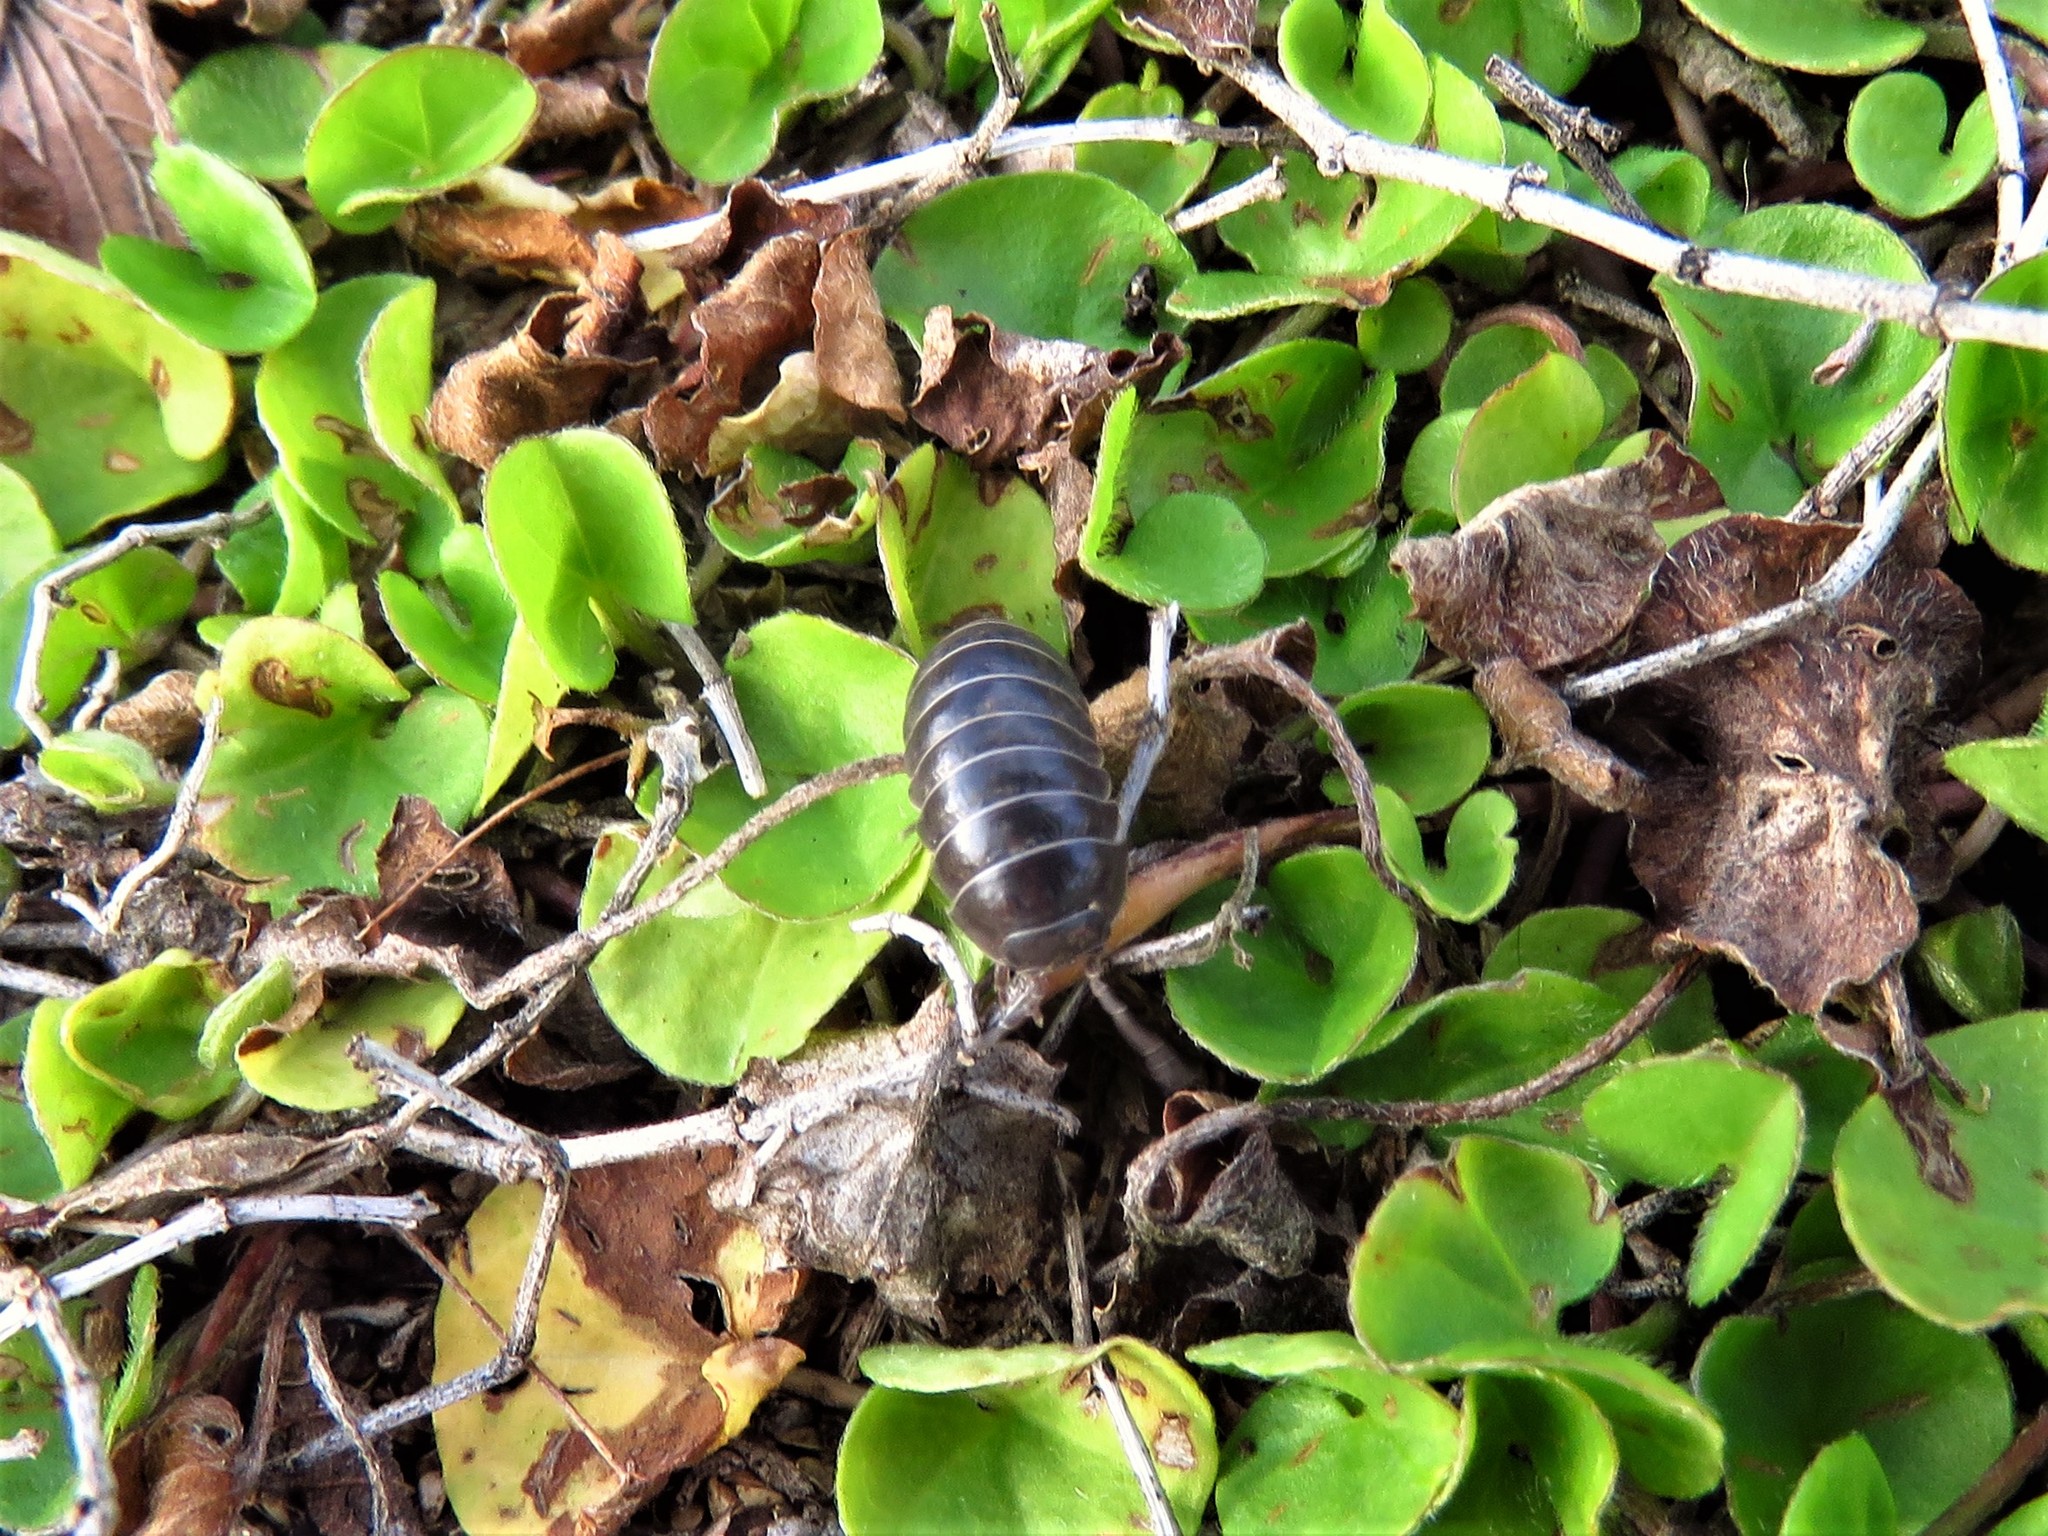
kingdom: Animalia
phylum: Arthropoda
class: Malacostraca
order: Isopoda
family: Armadillidiidae
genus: Armadillidium
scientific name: Armadillidium vulgare
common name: Common pill woodlouse
